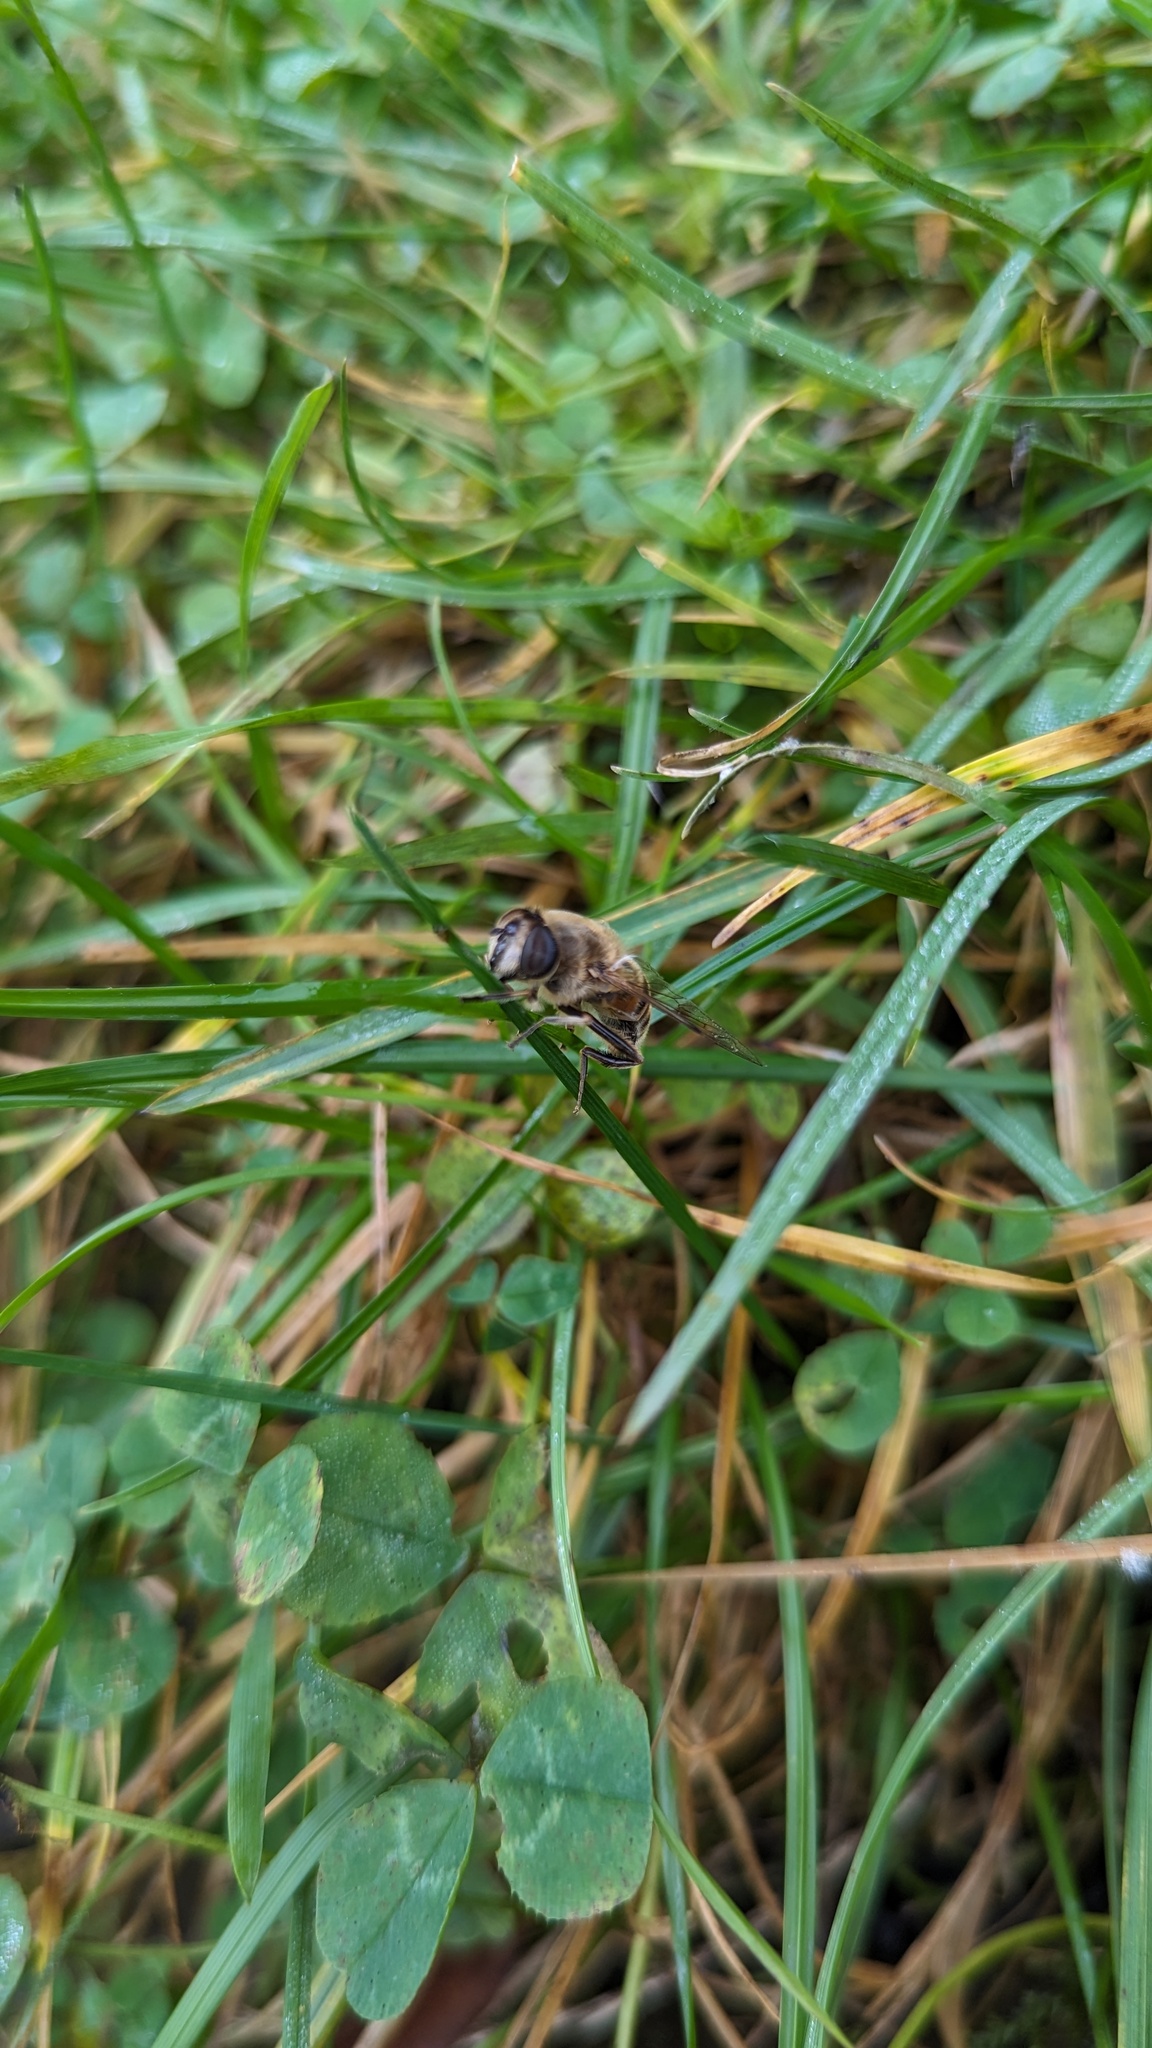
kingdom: Animalia
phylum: Arthropoda
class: Insecta
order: Diptera
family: Syrphidae
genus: Eristalis
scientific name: Eristalis tenax
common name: Drone fly
